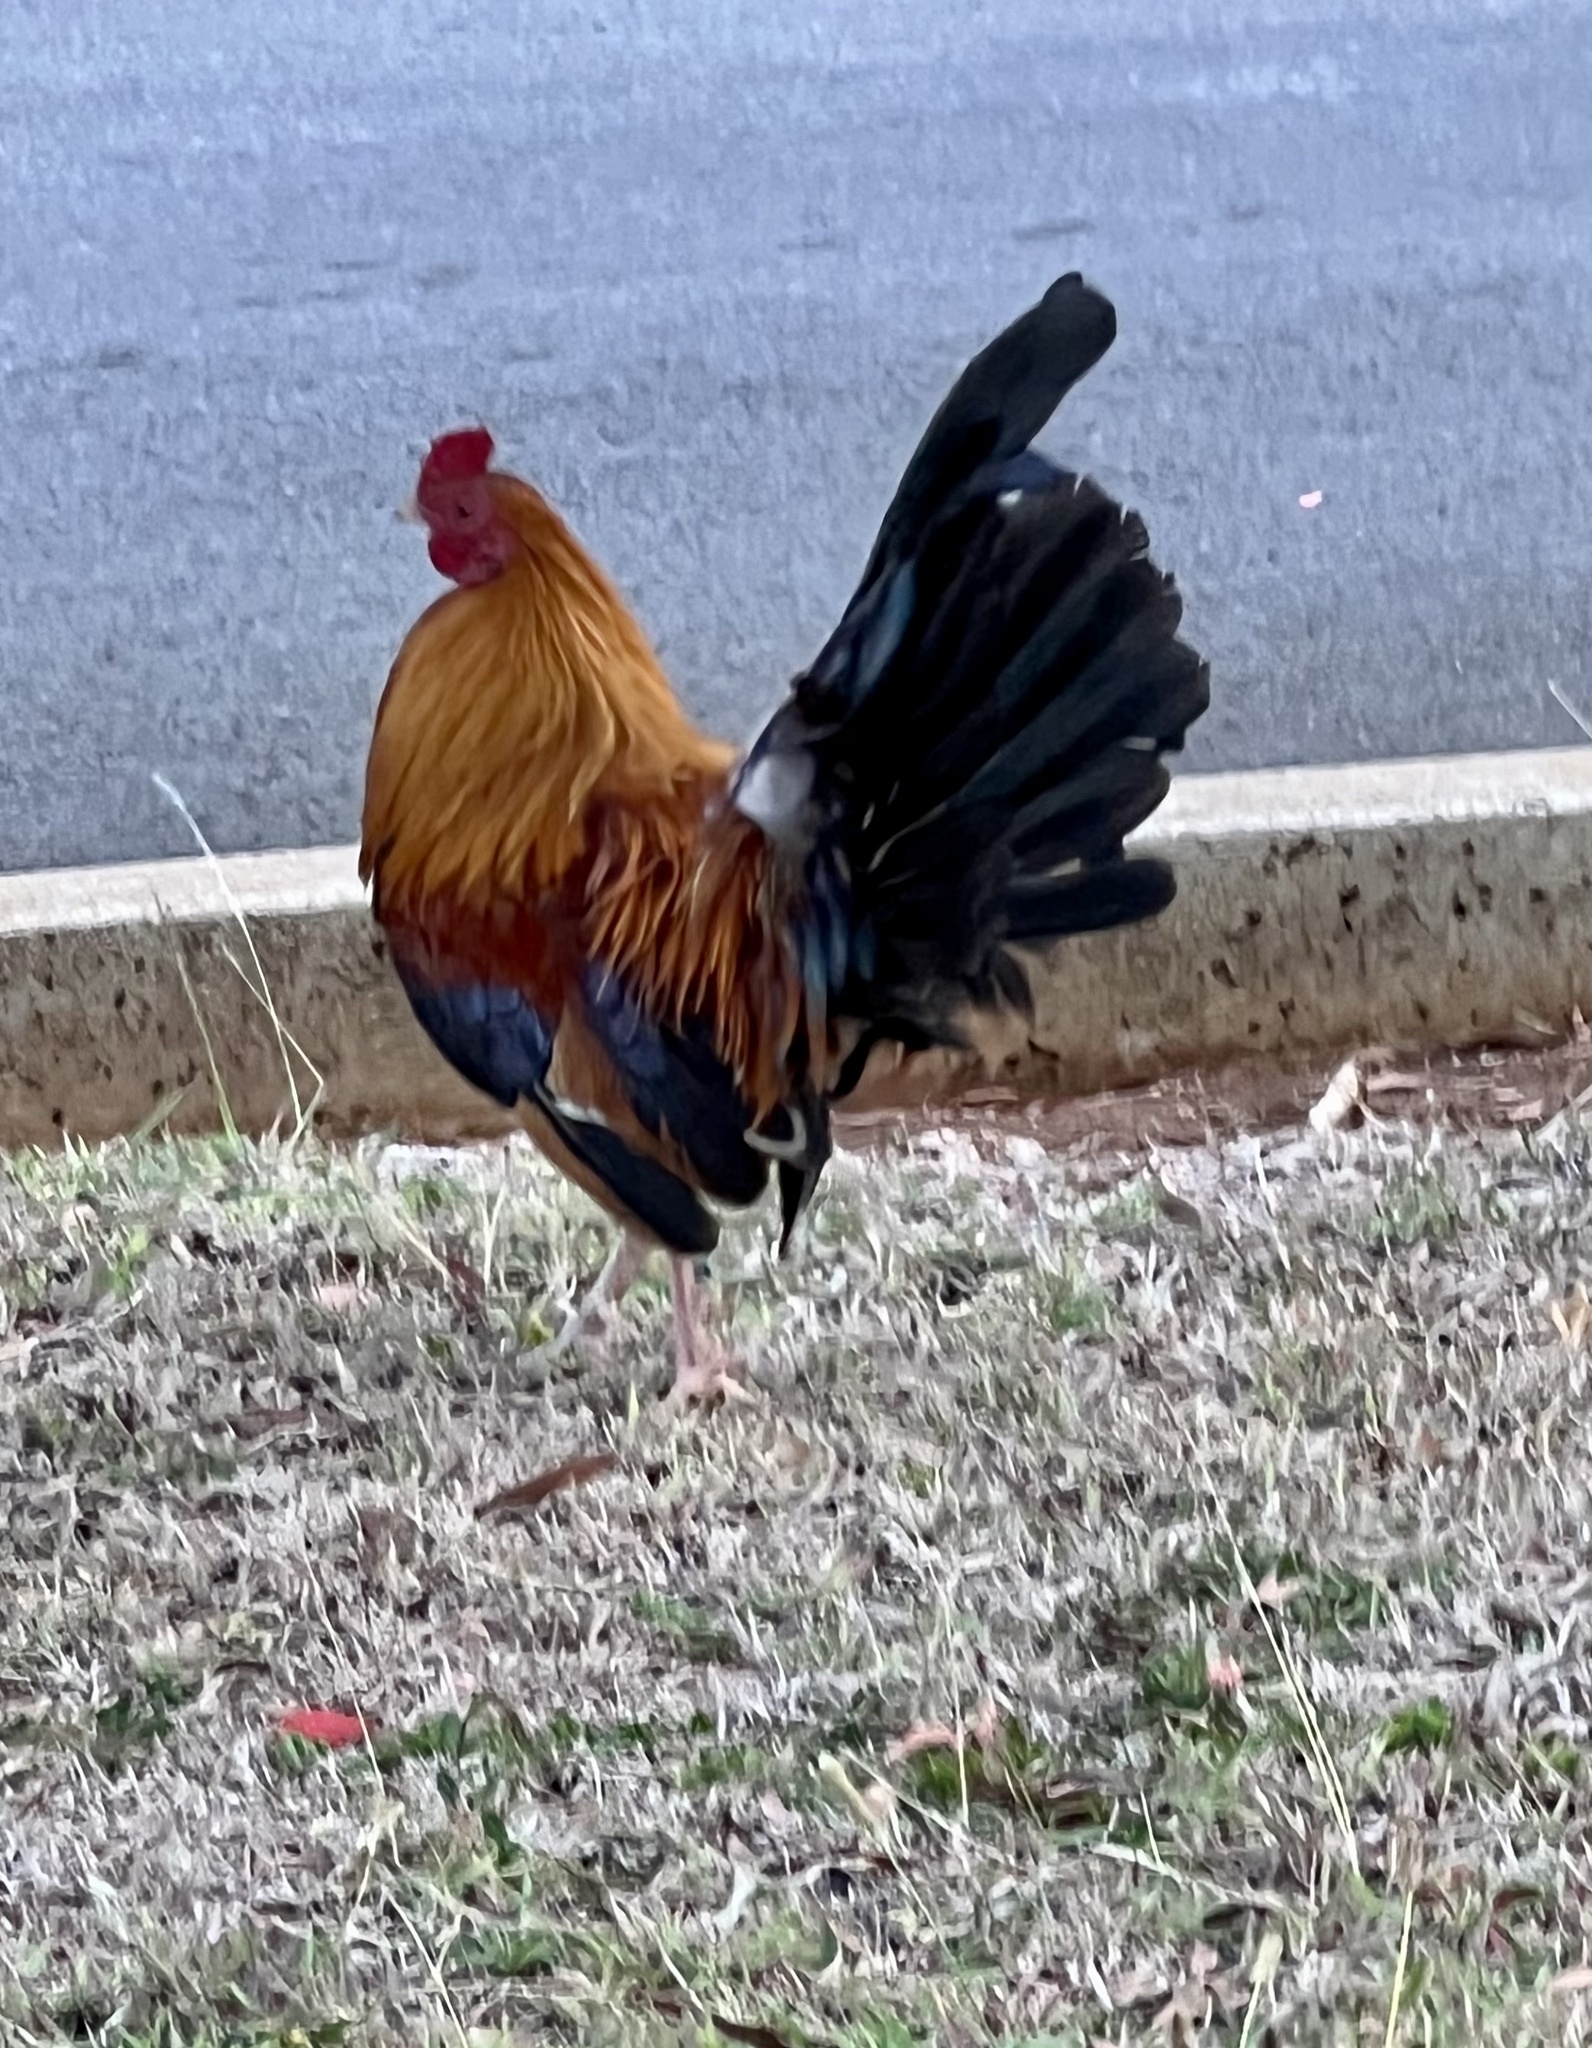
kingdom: Animalia
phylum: Chordata
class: Aves
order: Galliformes
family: Phasianidae
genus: Gallus
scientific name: Gallus gallus
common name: Red junglefowl
